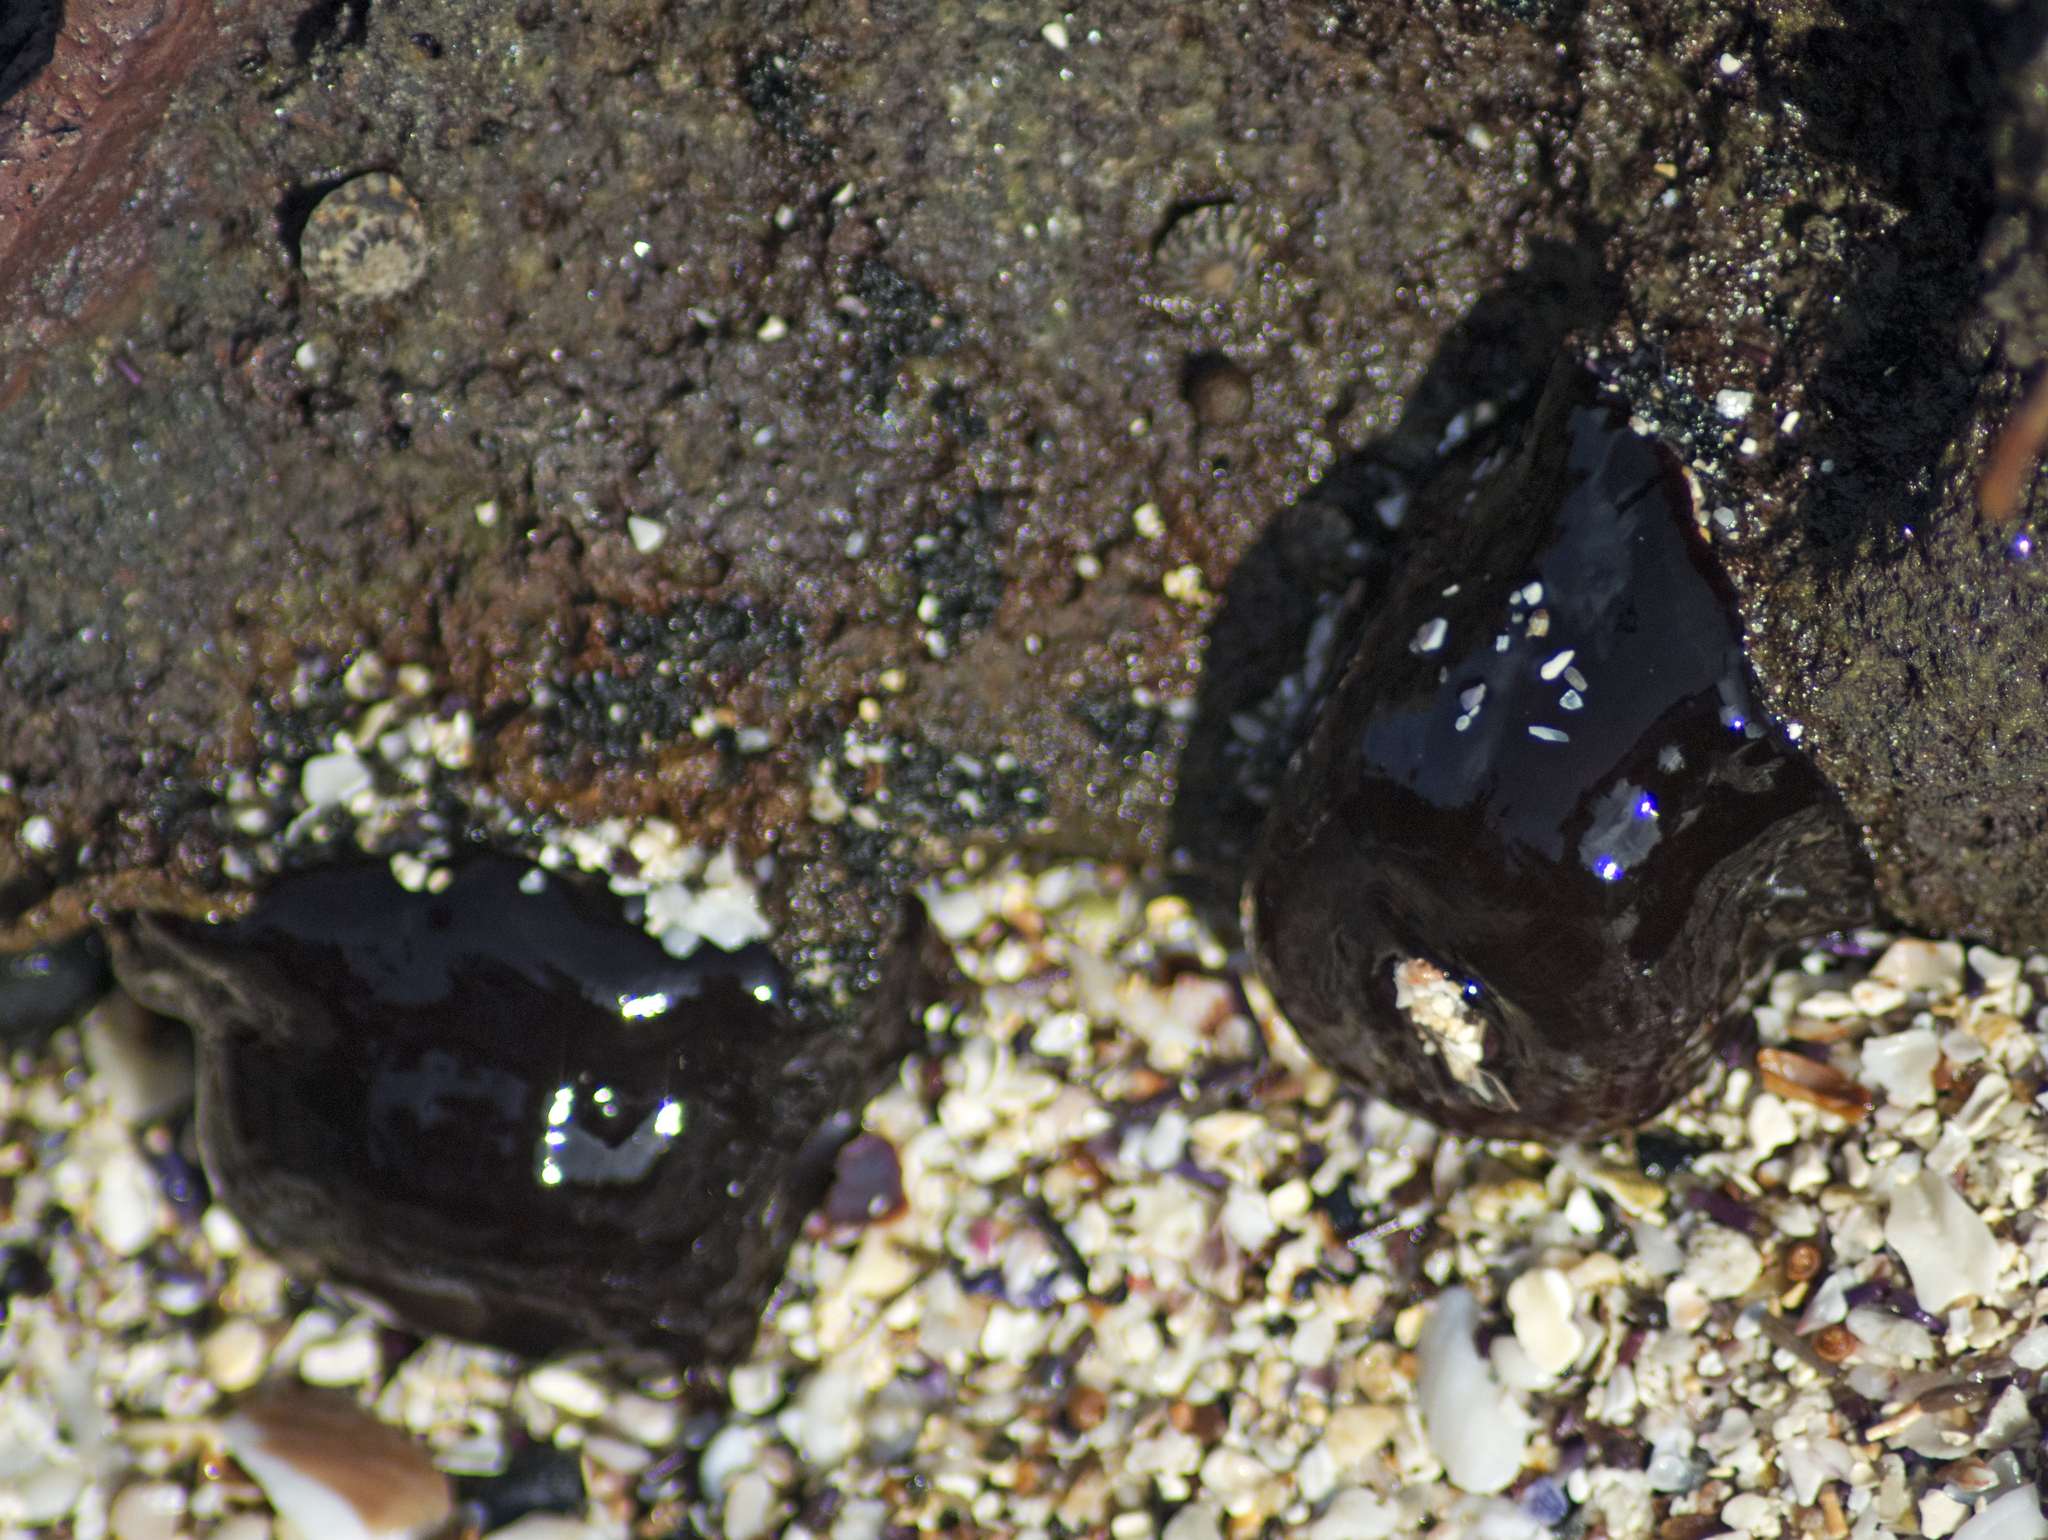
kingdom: Animalia
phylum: Cnidaria
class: Anthozoa
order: Actiniaria
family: Actiniidae
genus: Actinia
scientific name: Actinia tenebrosa
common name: Waratah anemone
